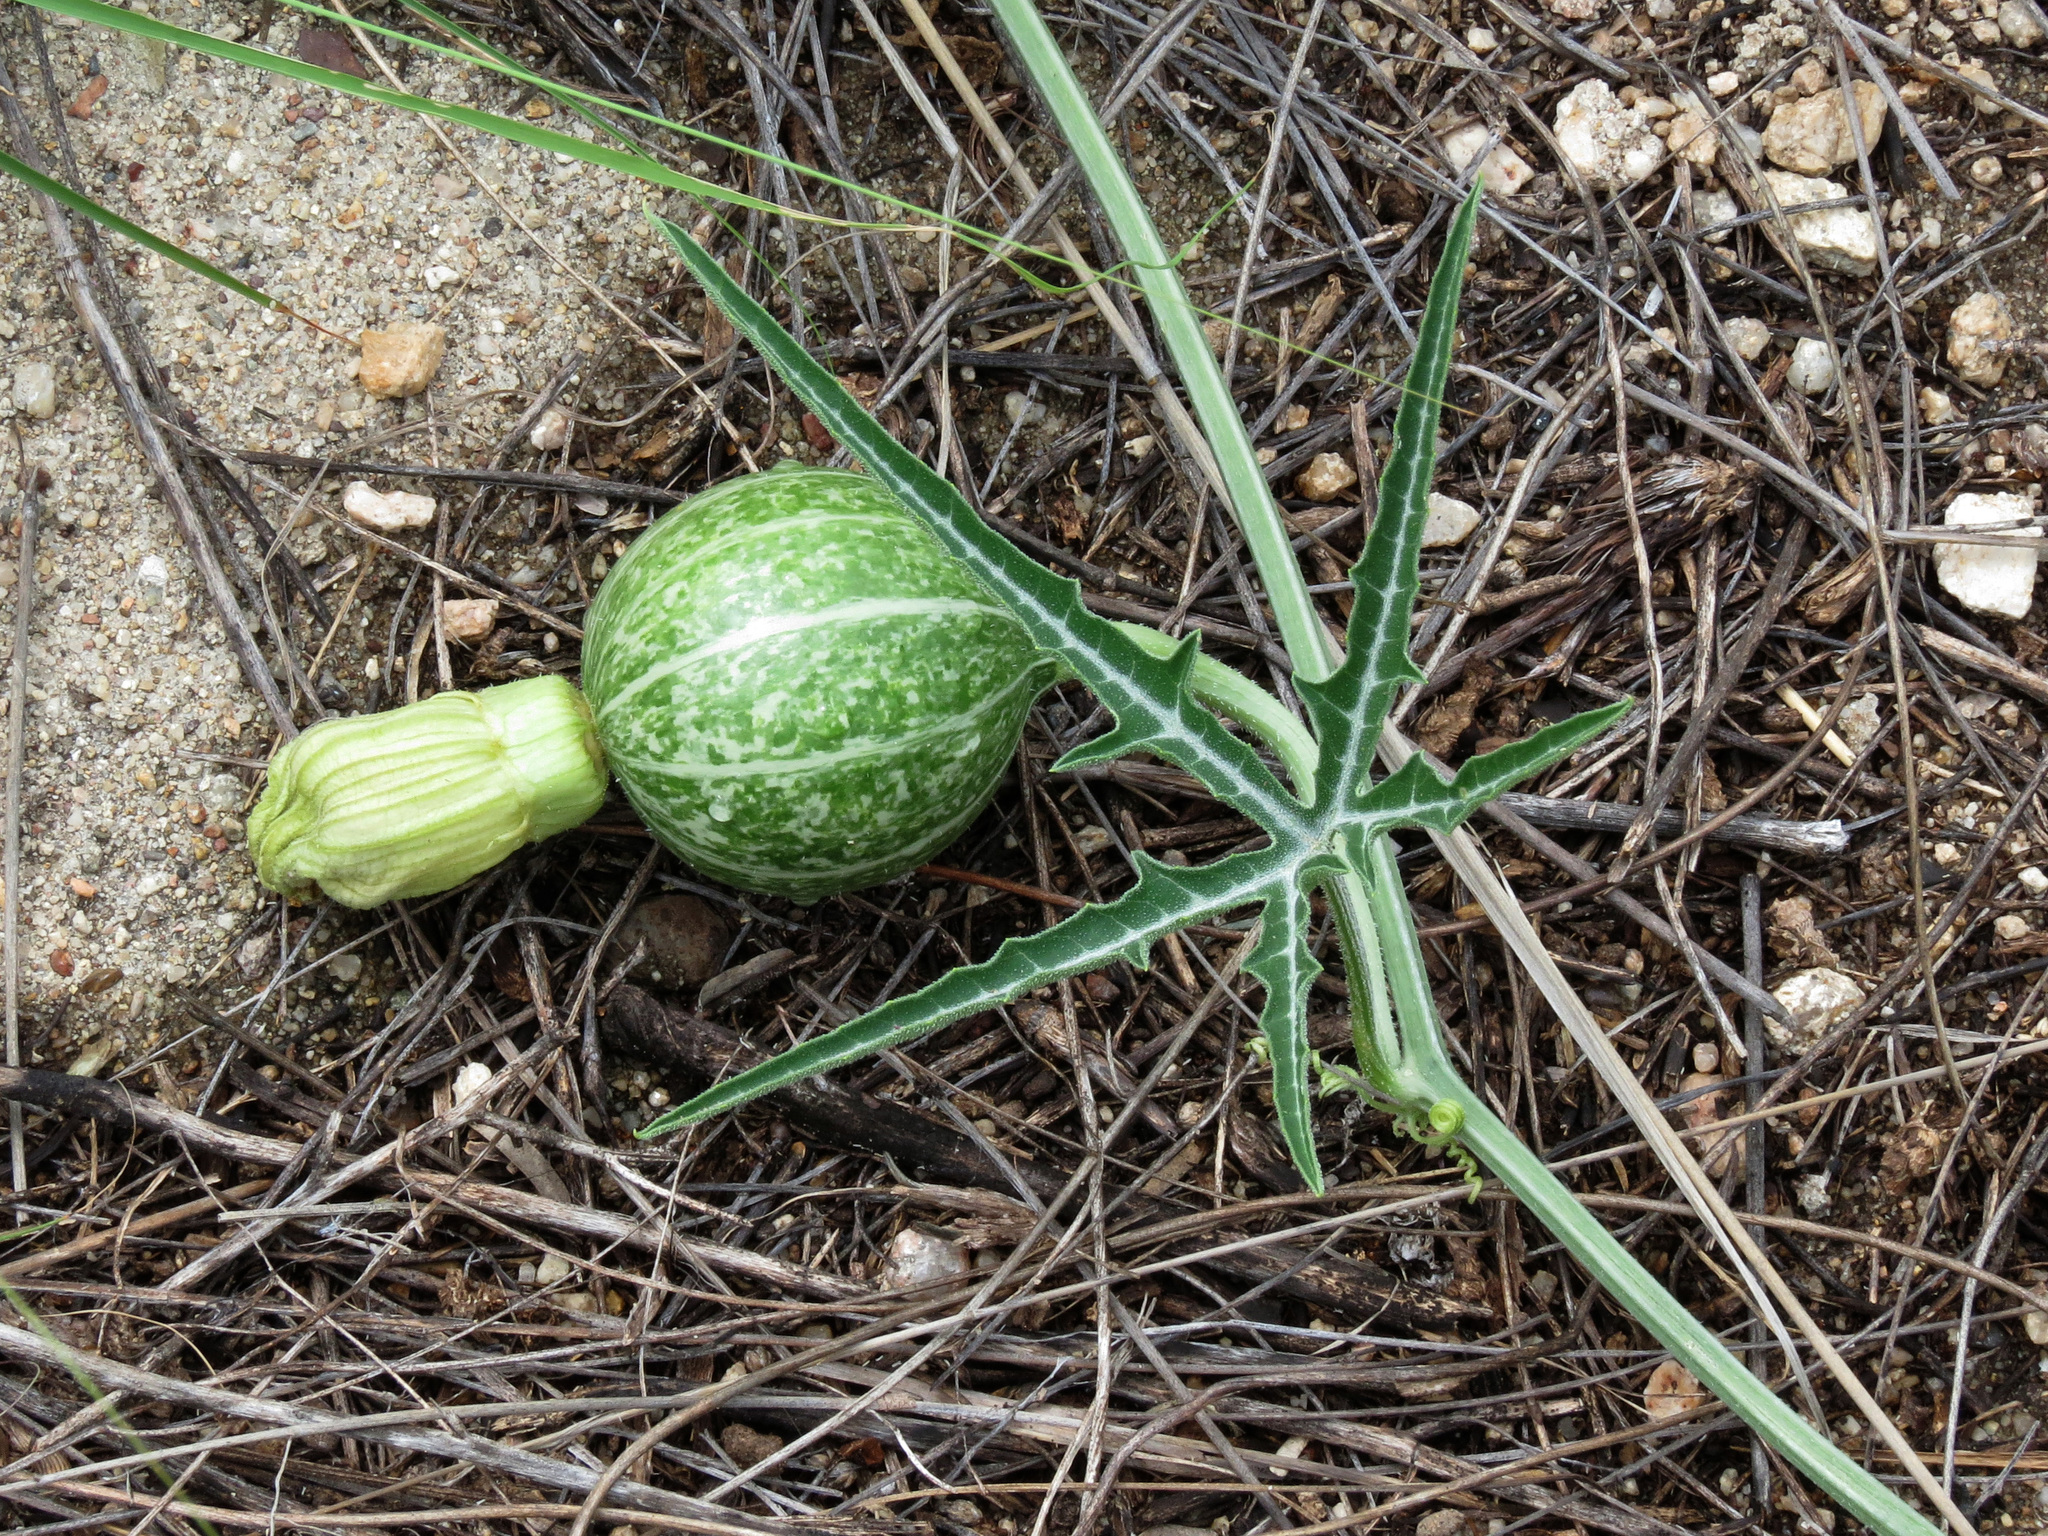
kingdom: Plantae
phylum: Tracheophyta
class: Magnoliopsida
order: Cucurbitales
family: Cucurbitaceae
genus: Cucurbita
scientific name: Cucurbita digitata
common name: Finger-leaf gourd
